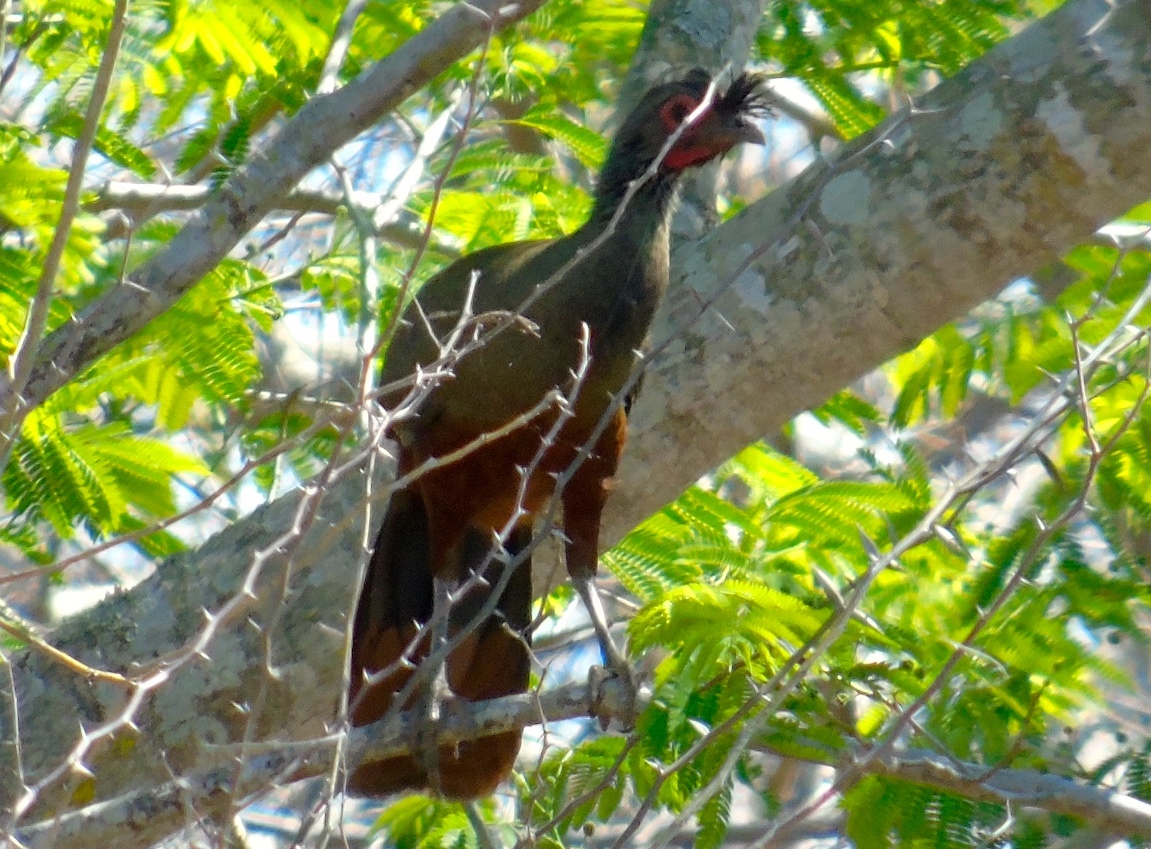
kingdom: Animalia
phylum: Chordata
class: Aves
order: Galliformes
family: Cracidae
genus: Ortalis
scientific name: Ortalis wagleri
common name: Rufous-bellied chachalaca
